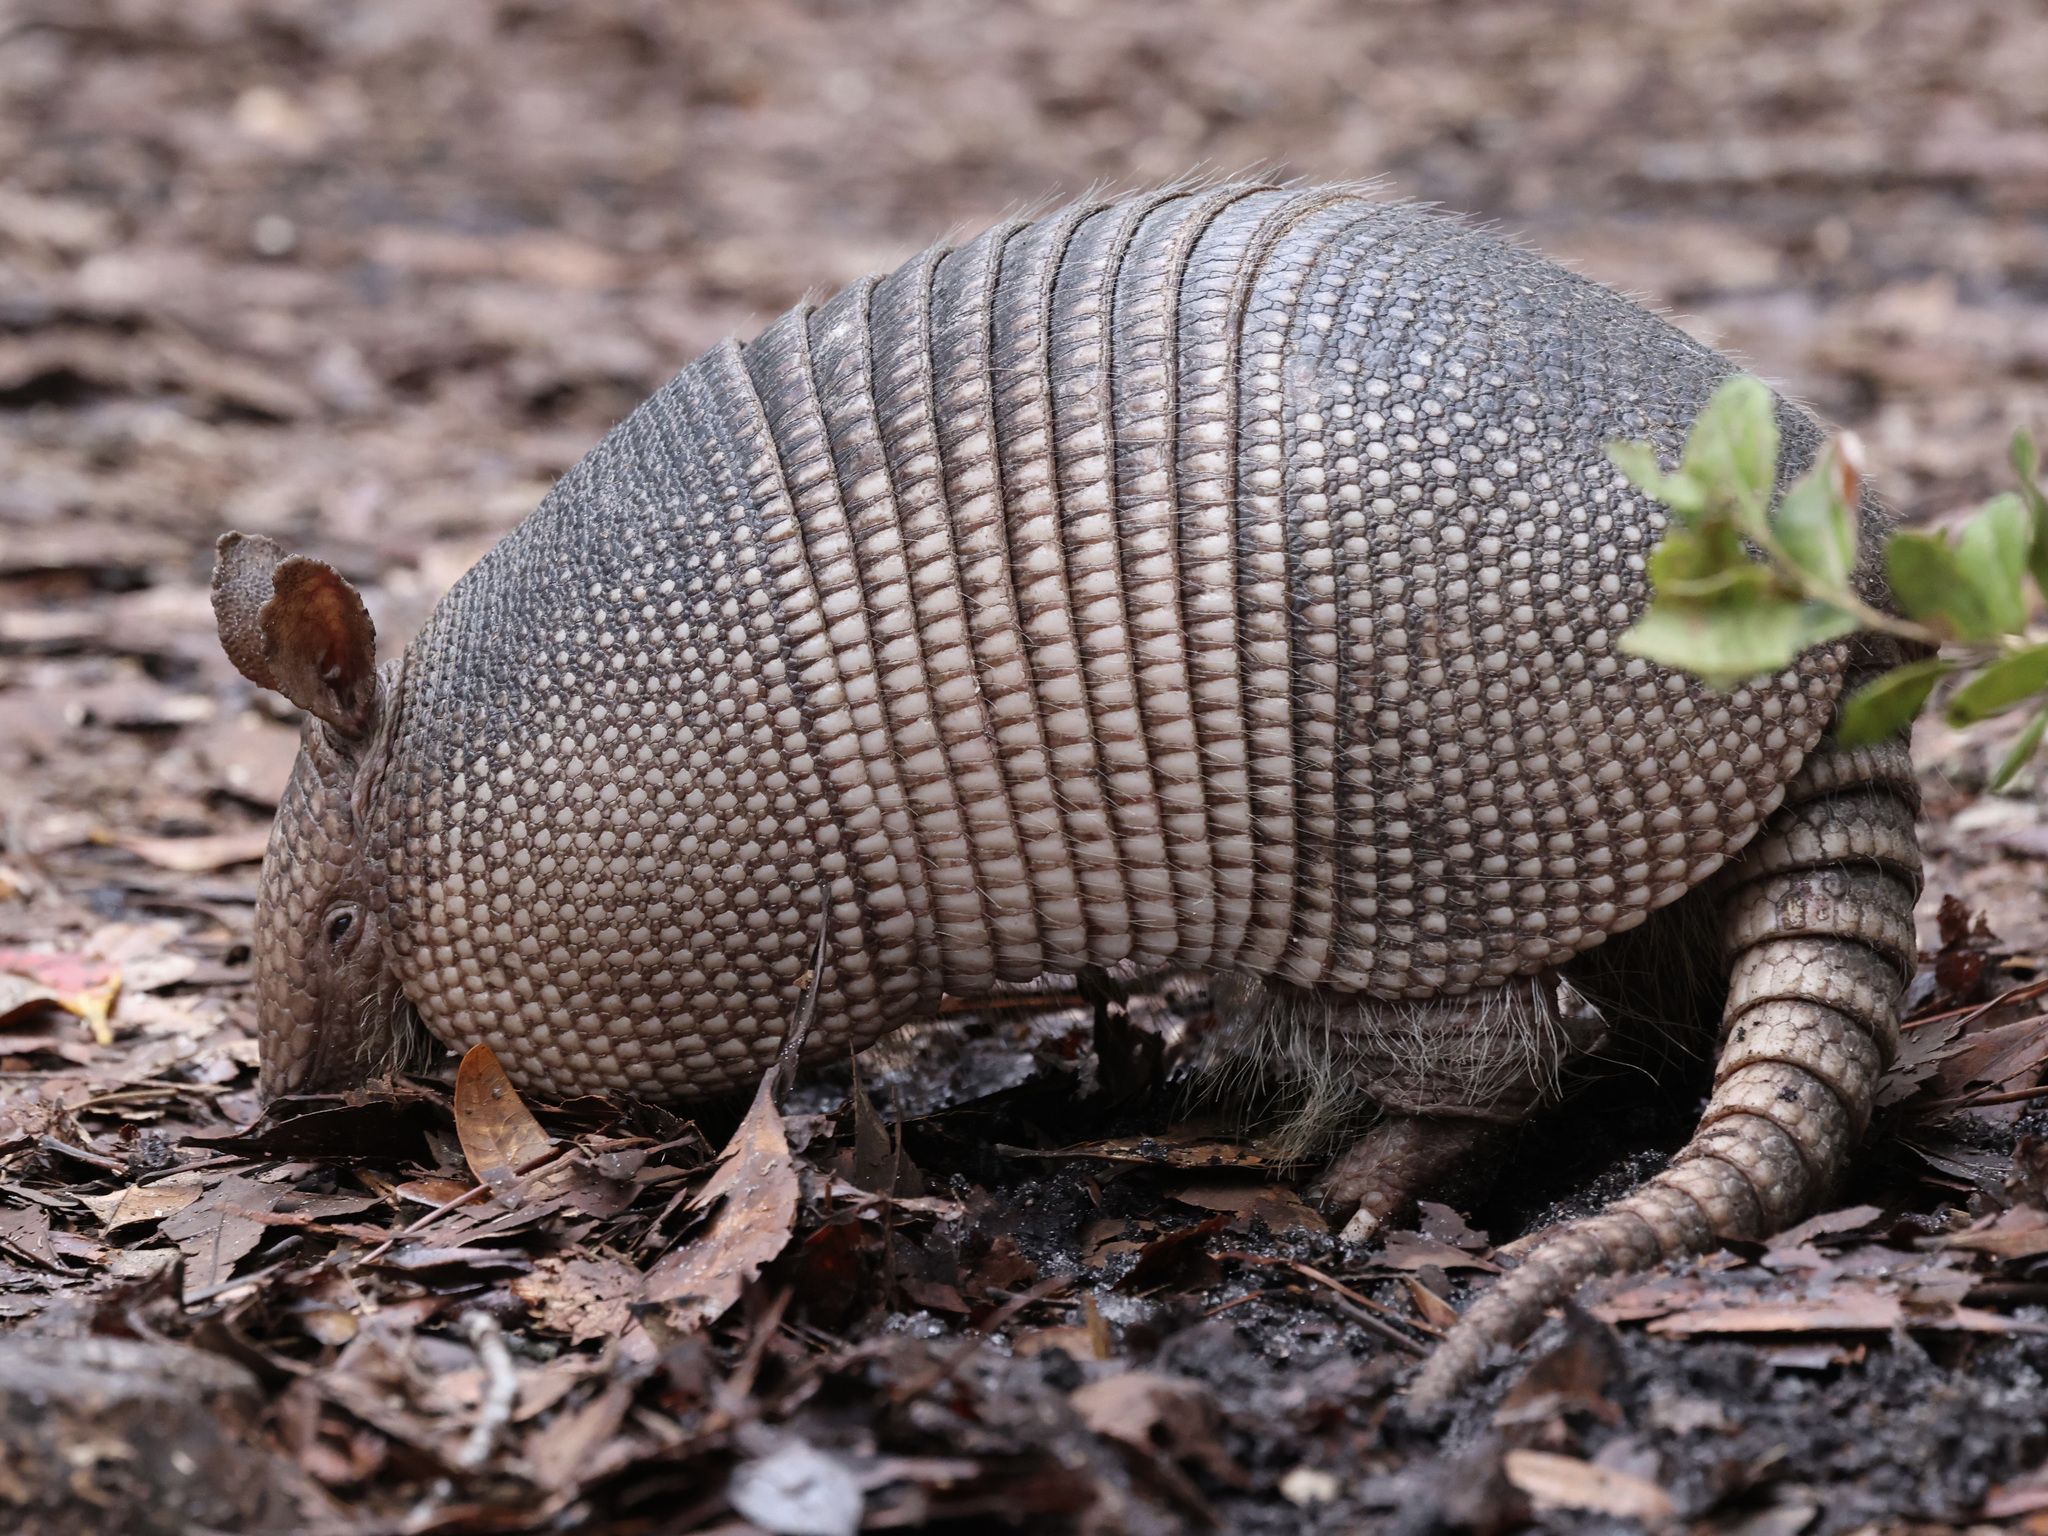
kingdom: Animalia
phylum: Chordata
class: Mammalia
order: Cingulata
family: Dasypodidae
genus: Dasypus
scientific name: Dasypus novemcinctus
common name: Nine-banded armadillo
